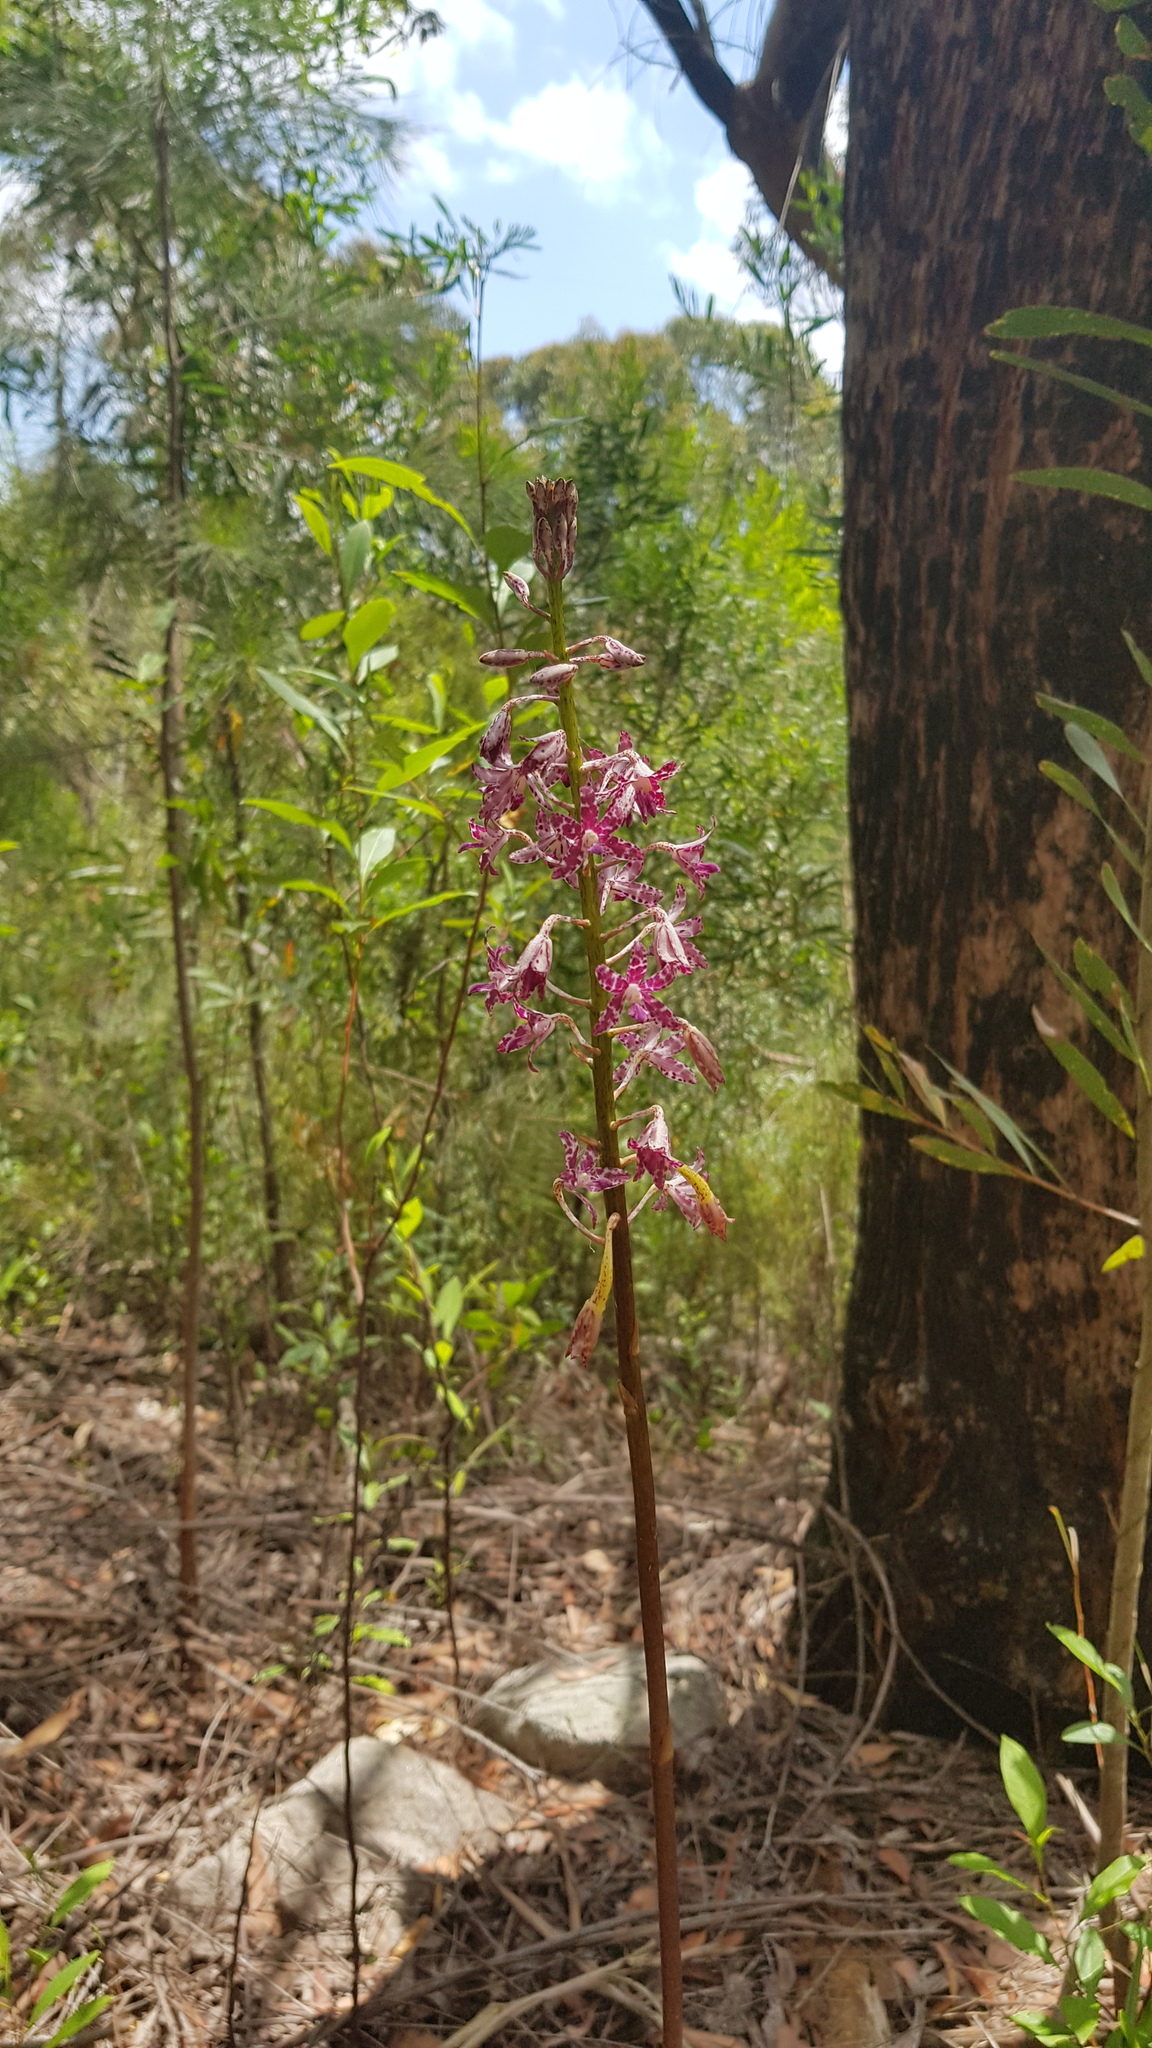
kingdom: Plantae
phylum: Tracheophyta
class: Liliopsida
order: Asparagales
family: Orchidaceae
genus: Dipodium
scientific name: Dipodium variegatum
